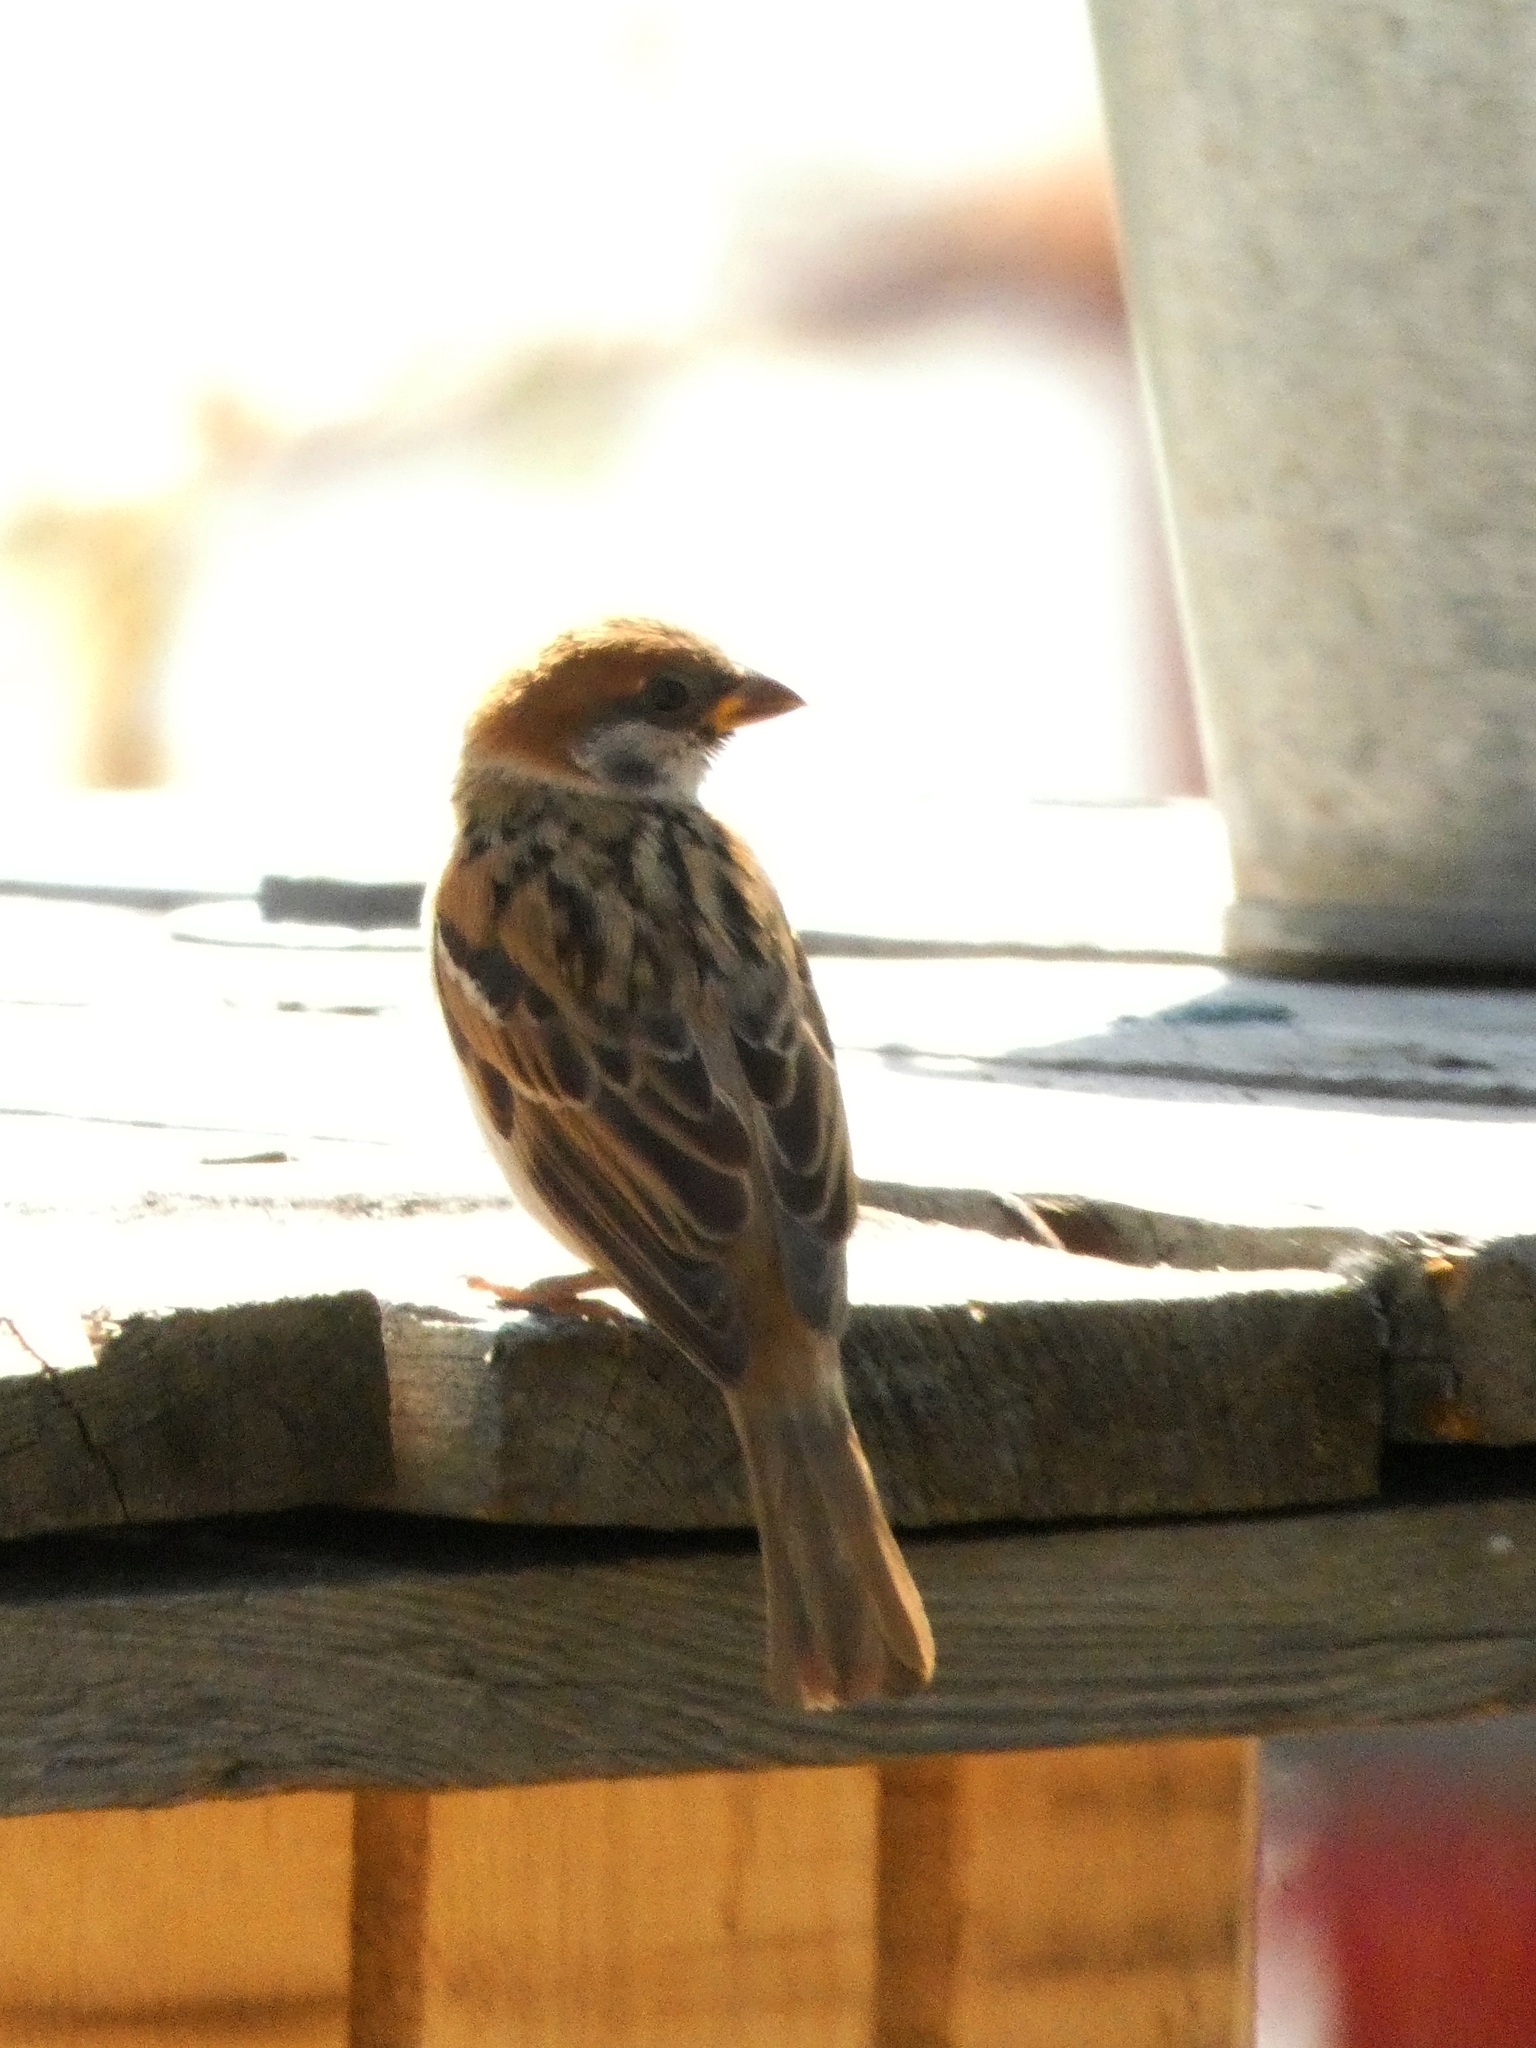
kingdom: Animalia
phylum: Chordata
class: Aves
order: Passeriformes
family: Passeridae
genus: Passer
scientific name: Passer montanus
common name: Eurasian tree sparrow
